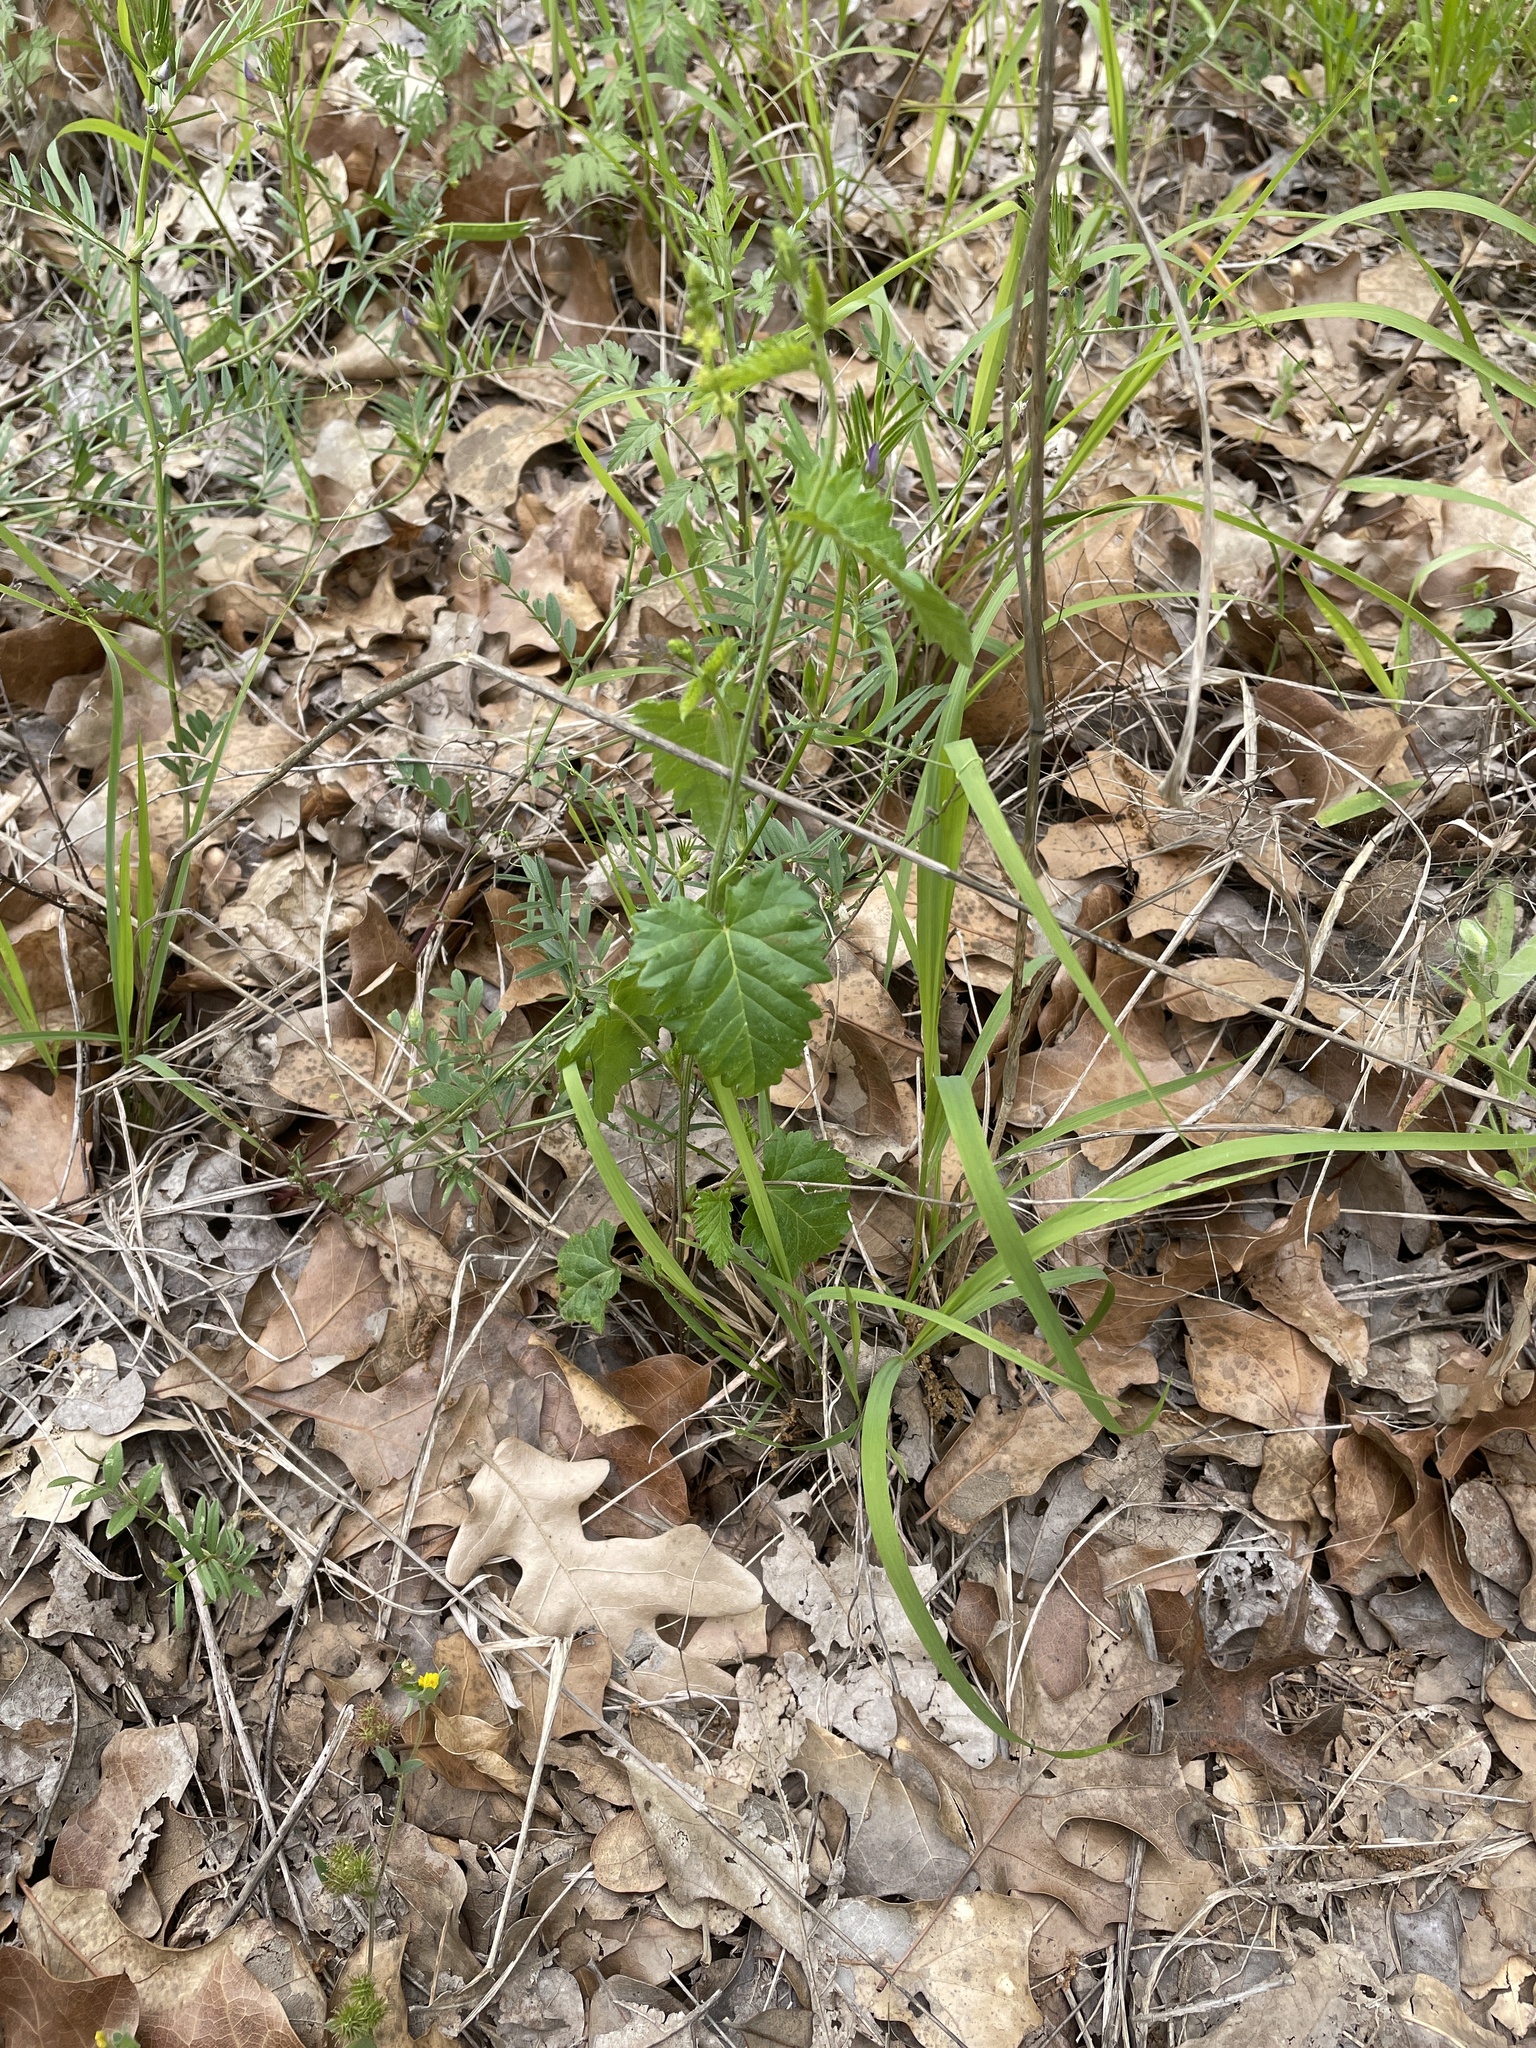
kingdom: Plantae
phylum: Tracheophyta
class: Magnoliopsida
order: Malpighiales
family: Euphorbiaceae
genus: Tragia
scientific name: Tragia urticifolia
